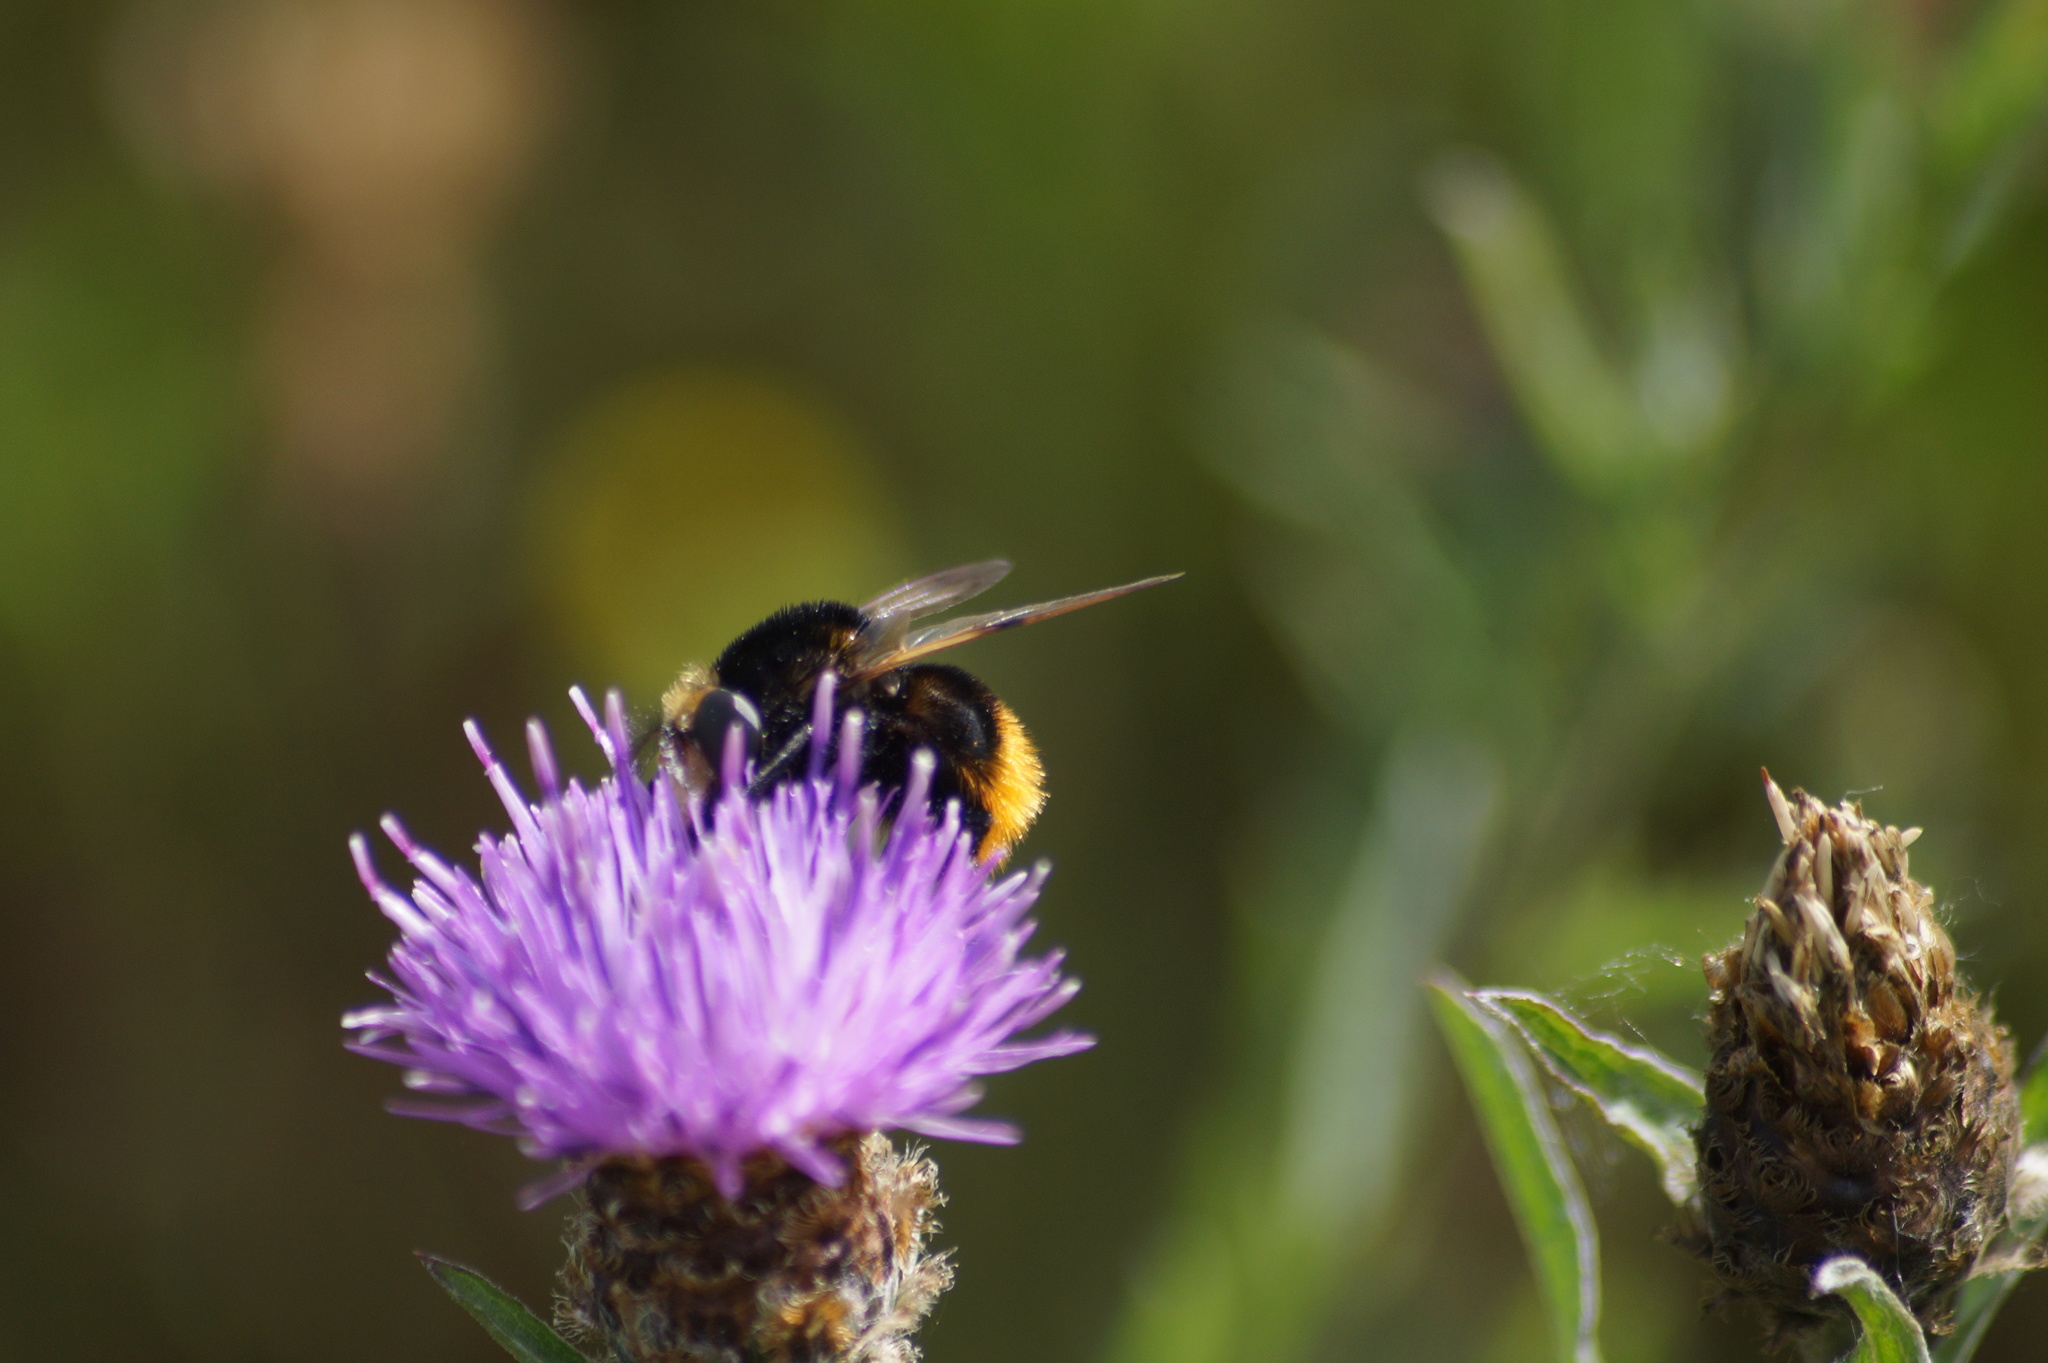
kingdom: Animalia
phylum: Arthropoda
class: Insecta
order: Diptera
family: Syrphidae
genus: Volucella
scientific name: Volucella bombylans
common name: Bumble bee hover fly
